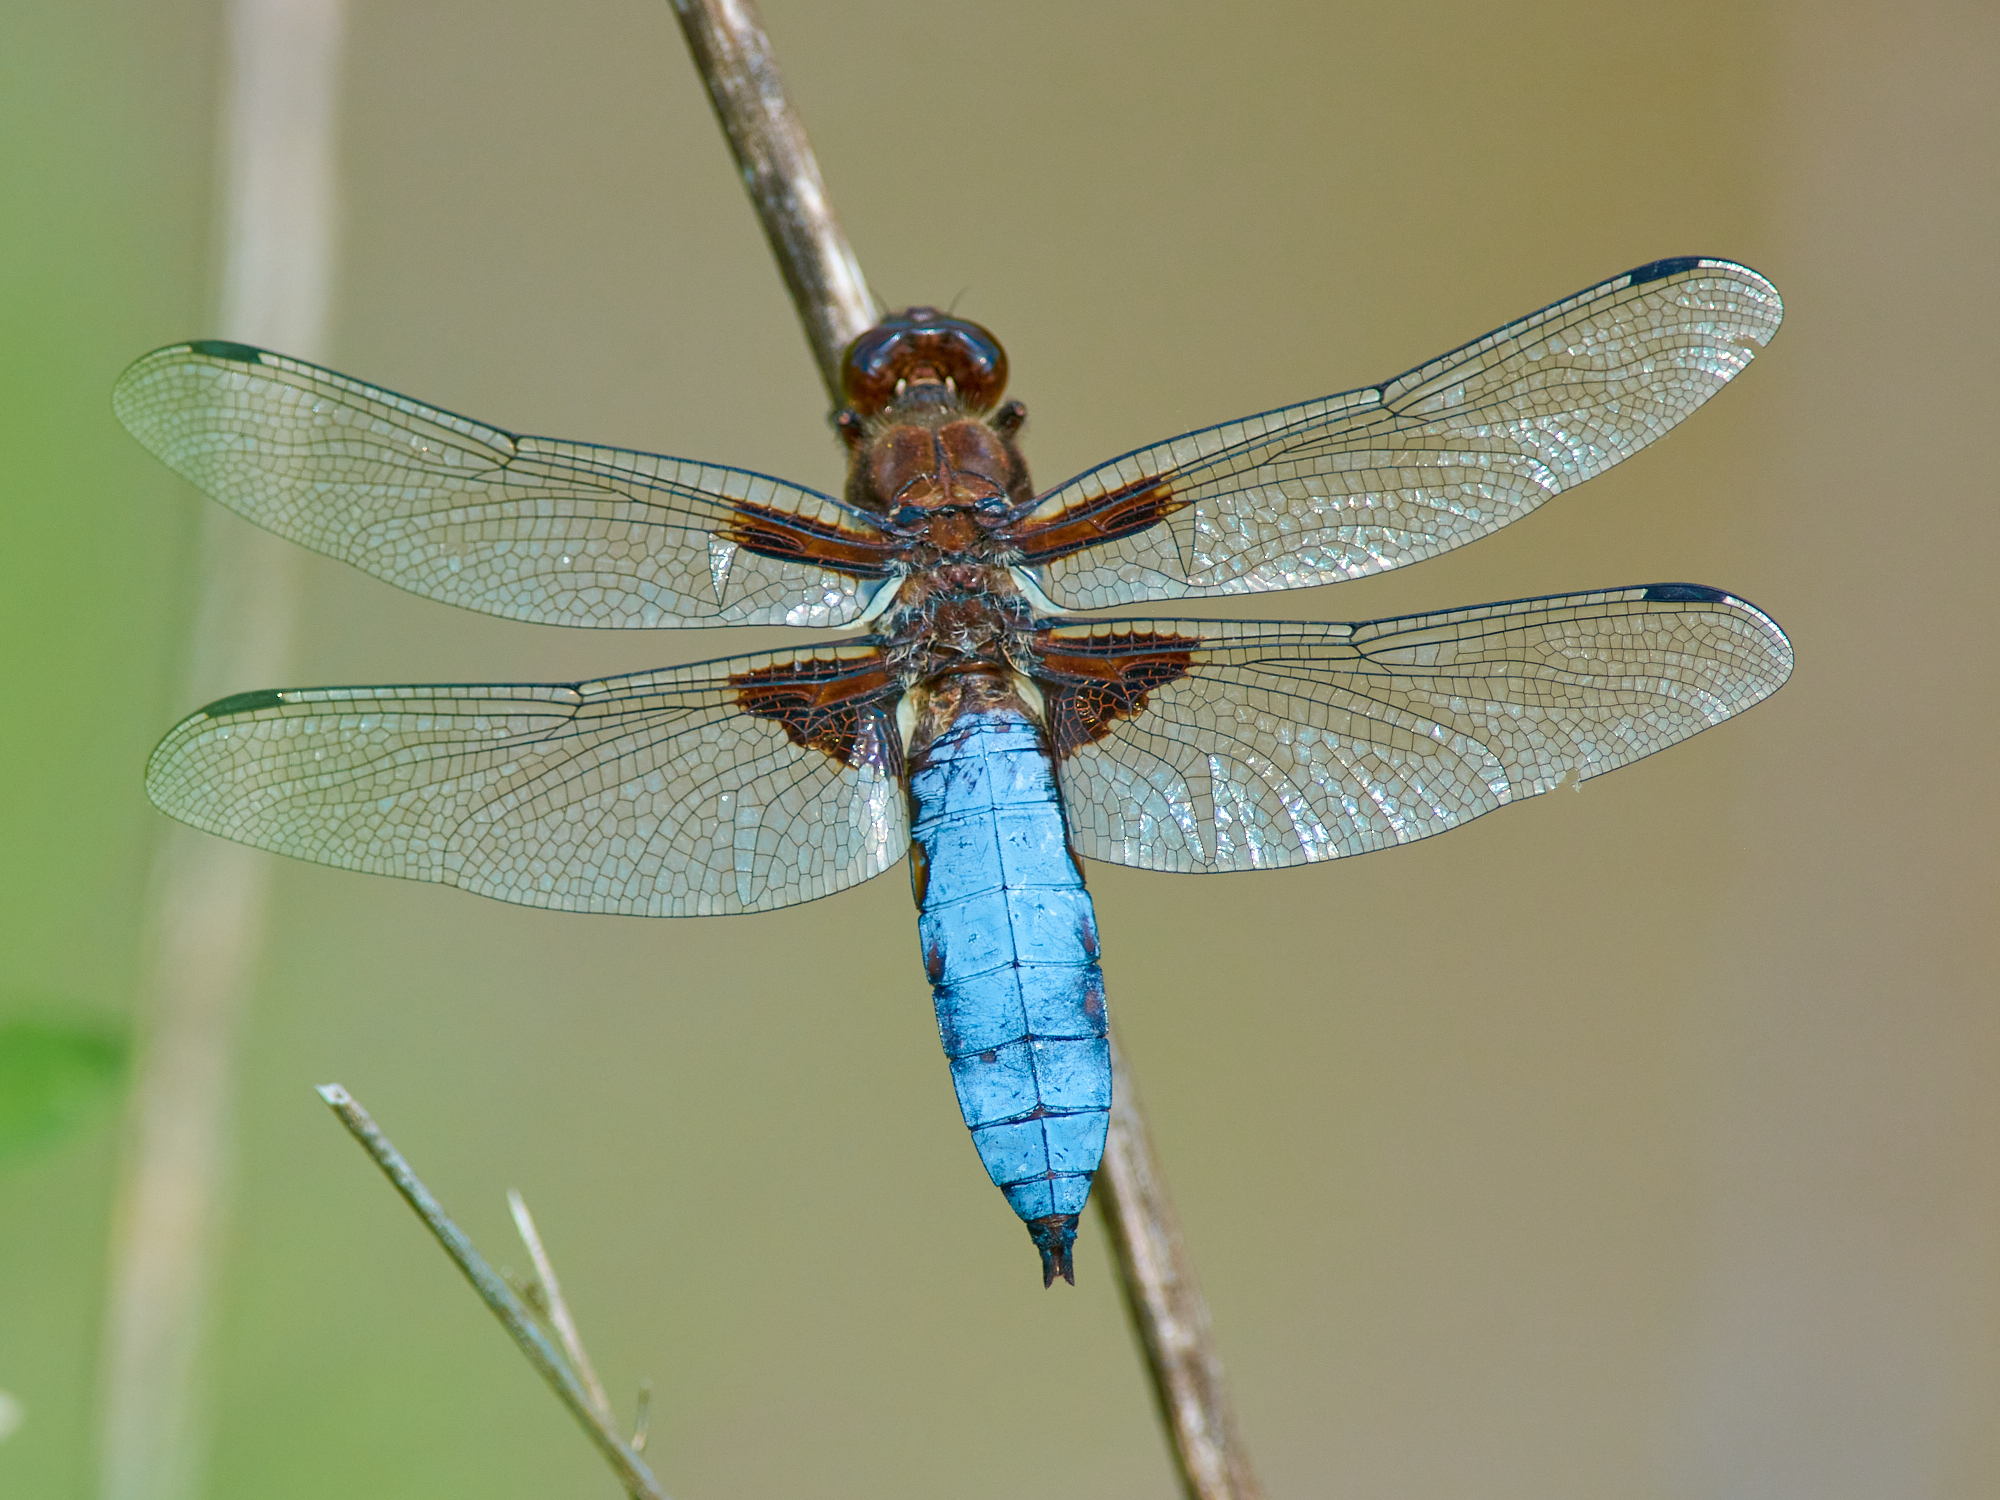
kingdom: Animalia
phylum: Arthropoda
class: Insecta
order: Odonata
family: Libellulidae
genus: Libellula
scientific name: Libellula depressa
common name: Broad-bodied chaser
